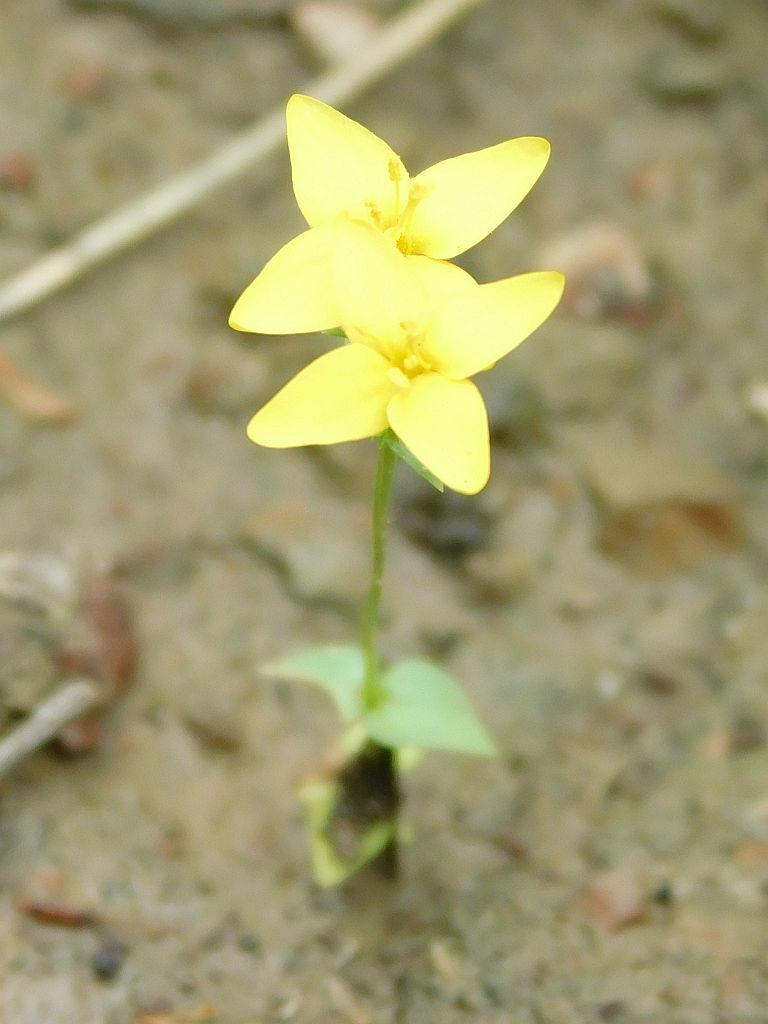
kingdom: Plantae
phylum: Tracheophyta
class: Magnoliopsida
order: Gentianales
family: Gentianaceae
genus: Sebaea
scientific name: Sebaea aurea
